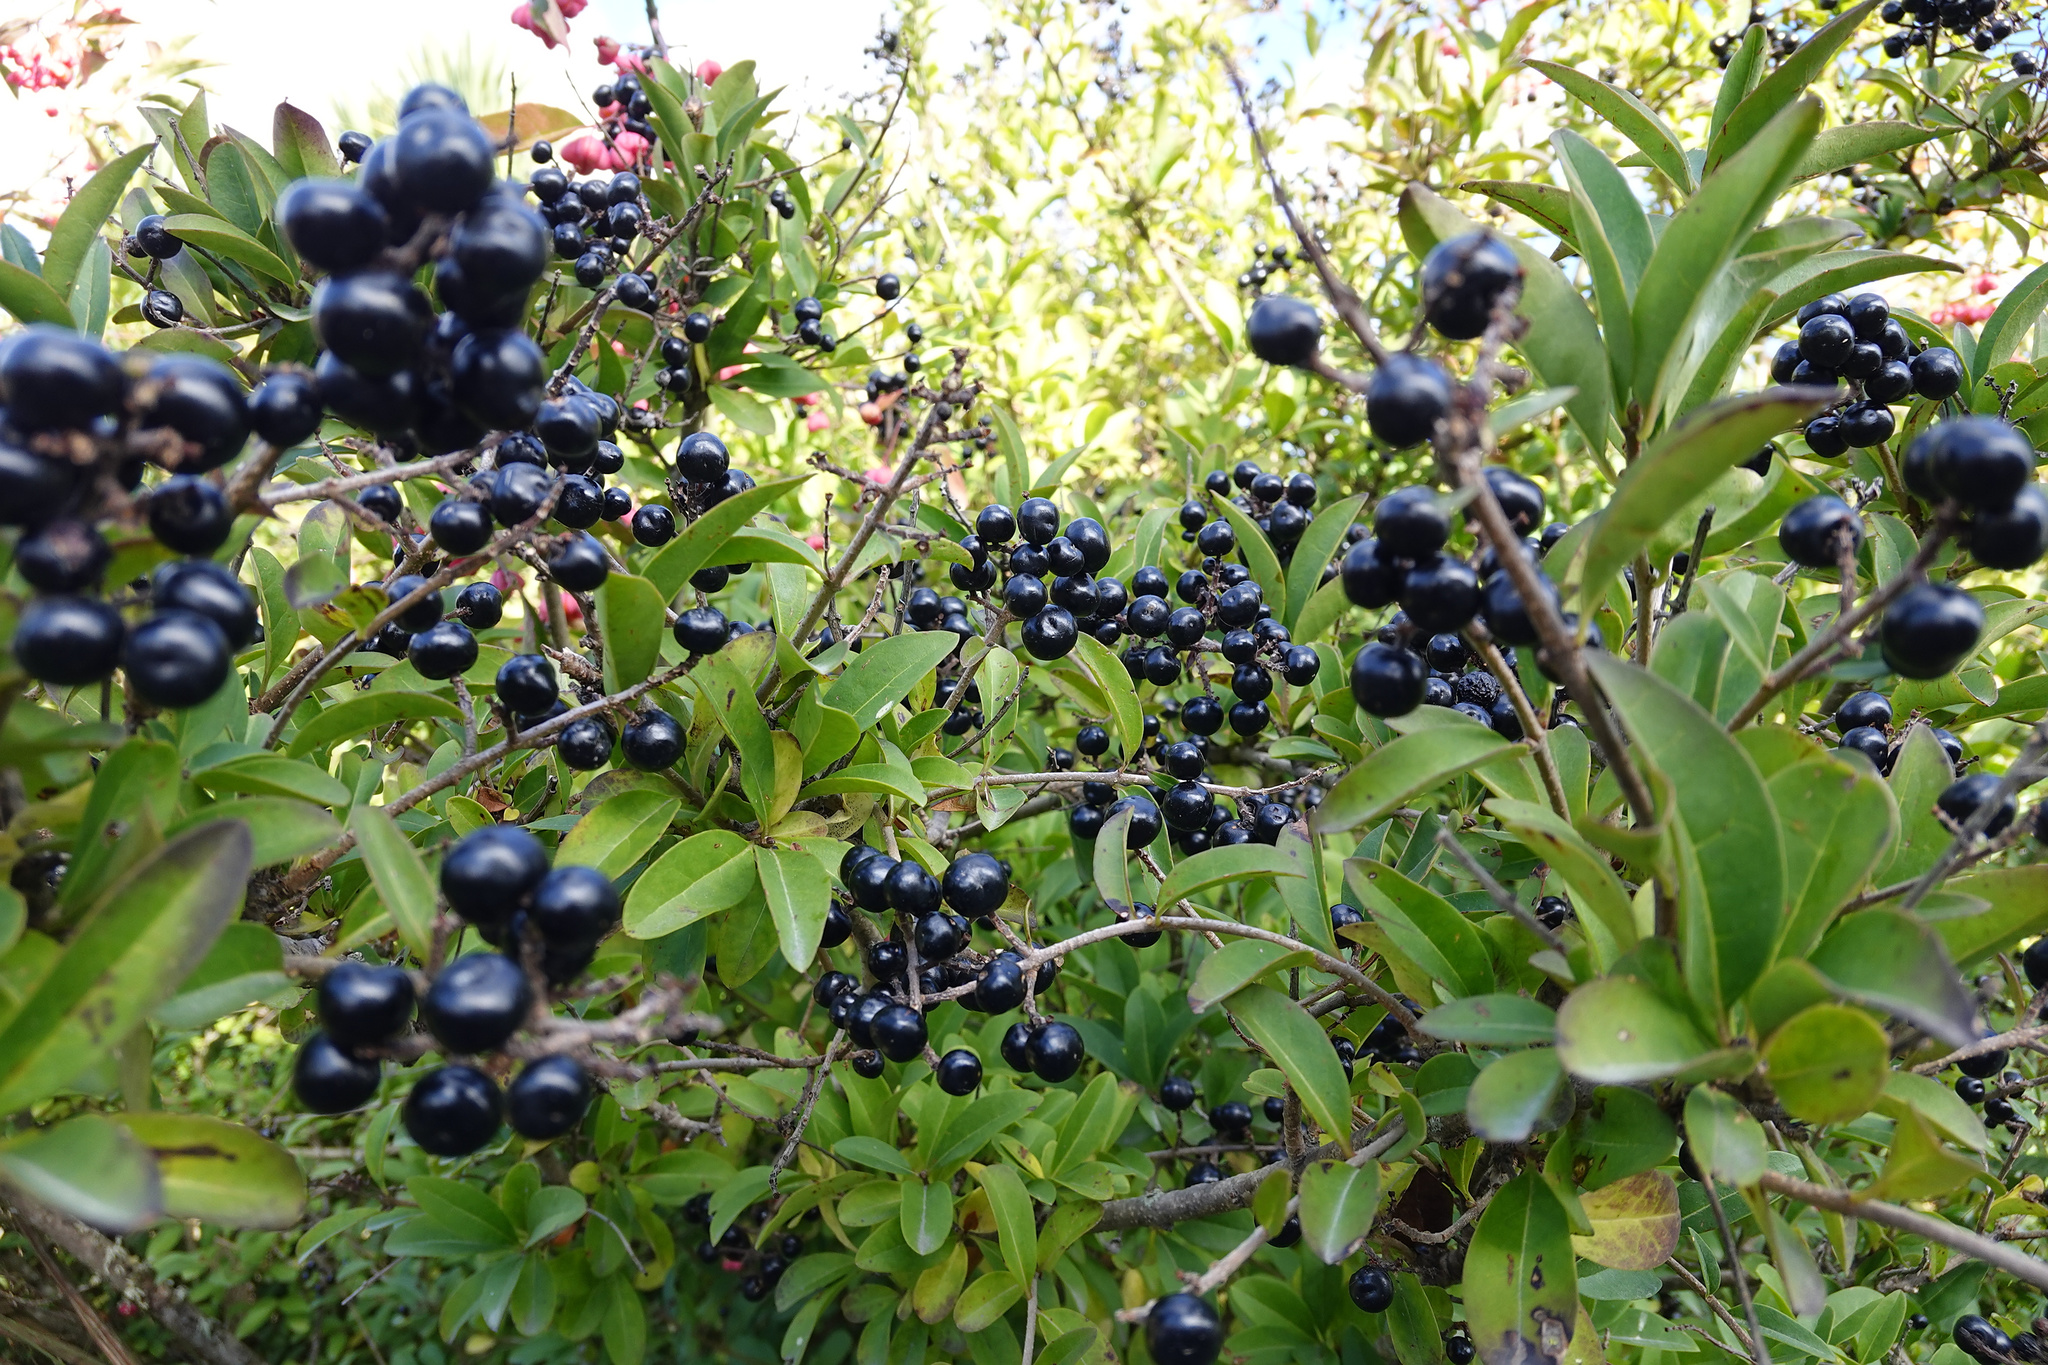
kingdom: Plantae
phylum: Tracheophyta
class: Magnoliopsida
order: Lamiales
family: Oleaceae
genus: Ligustrum
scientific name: Ligustrum vulgare
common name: Wild privet
